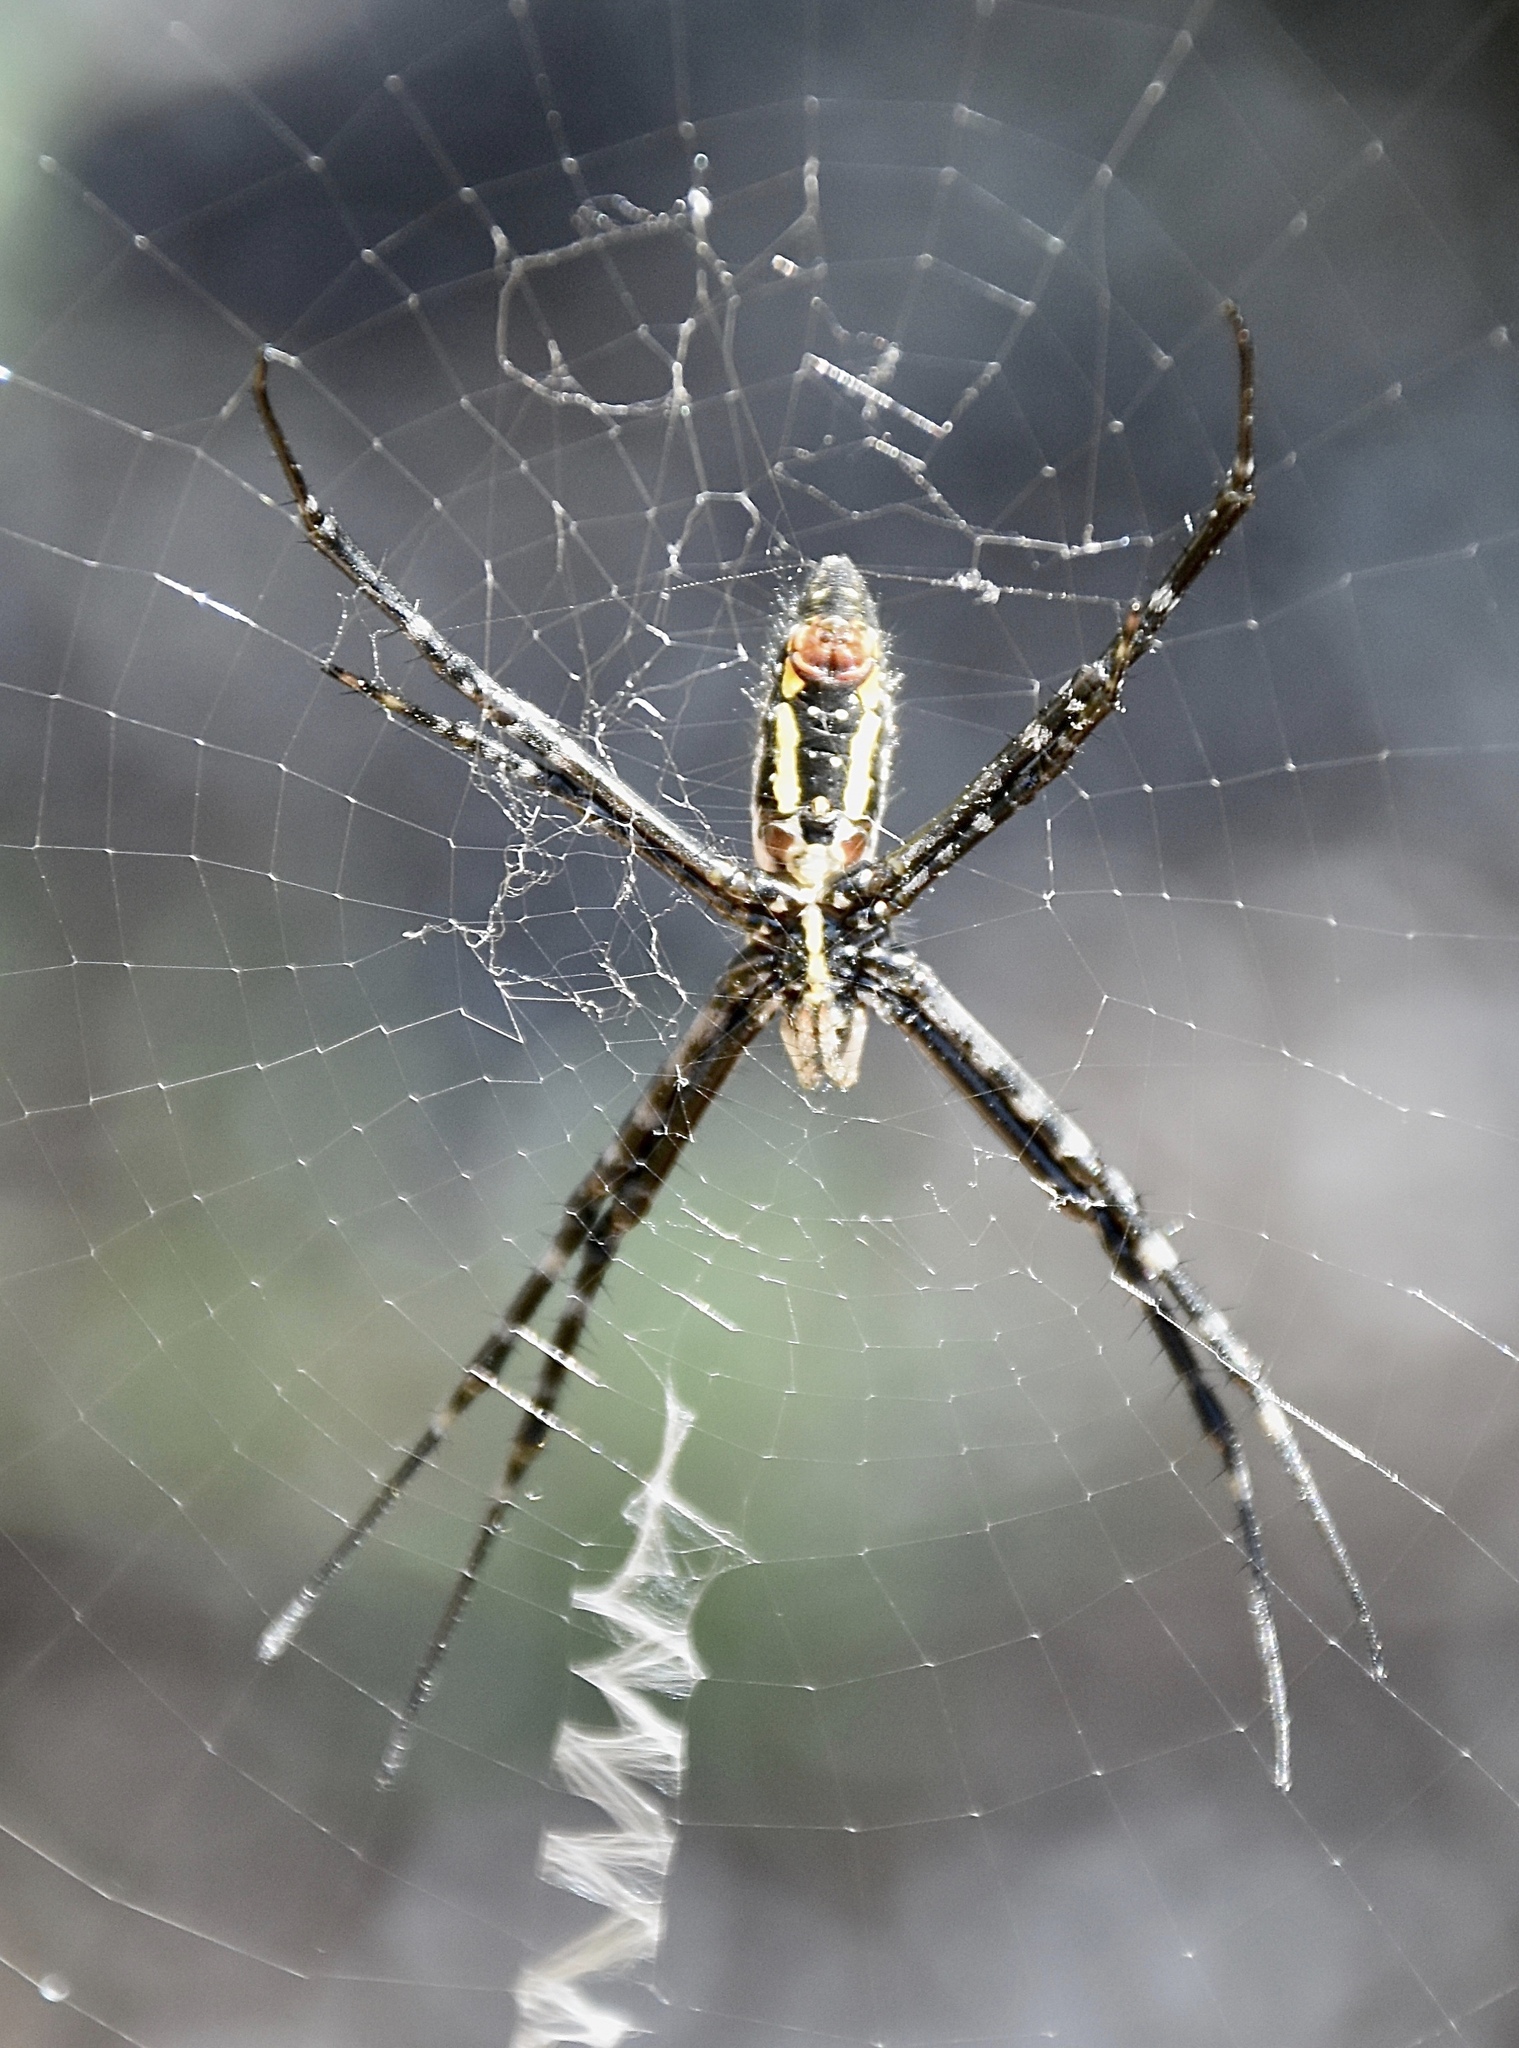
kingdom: Animalia
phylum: Arthropoda
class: Arachnida
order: Araneae
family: Araneidae
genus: Argiope
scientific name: Argiope trifasciata
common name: Banded garden spider
